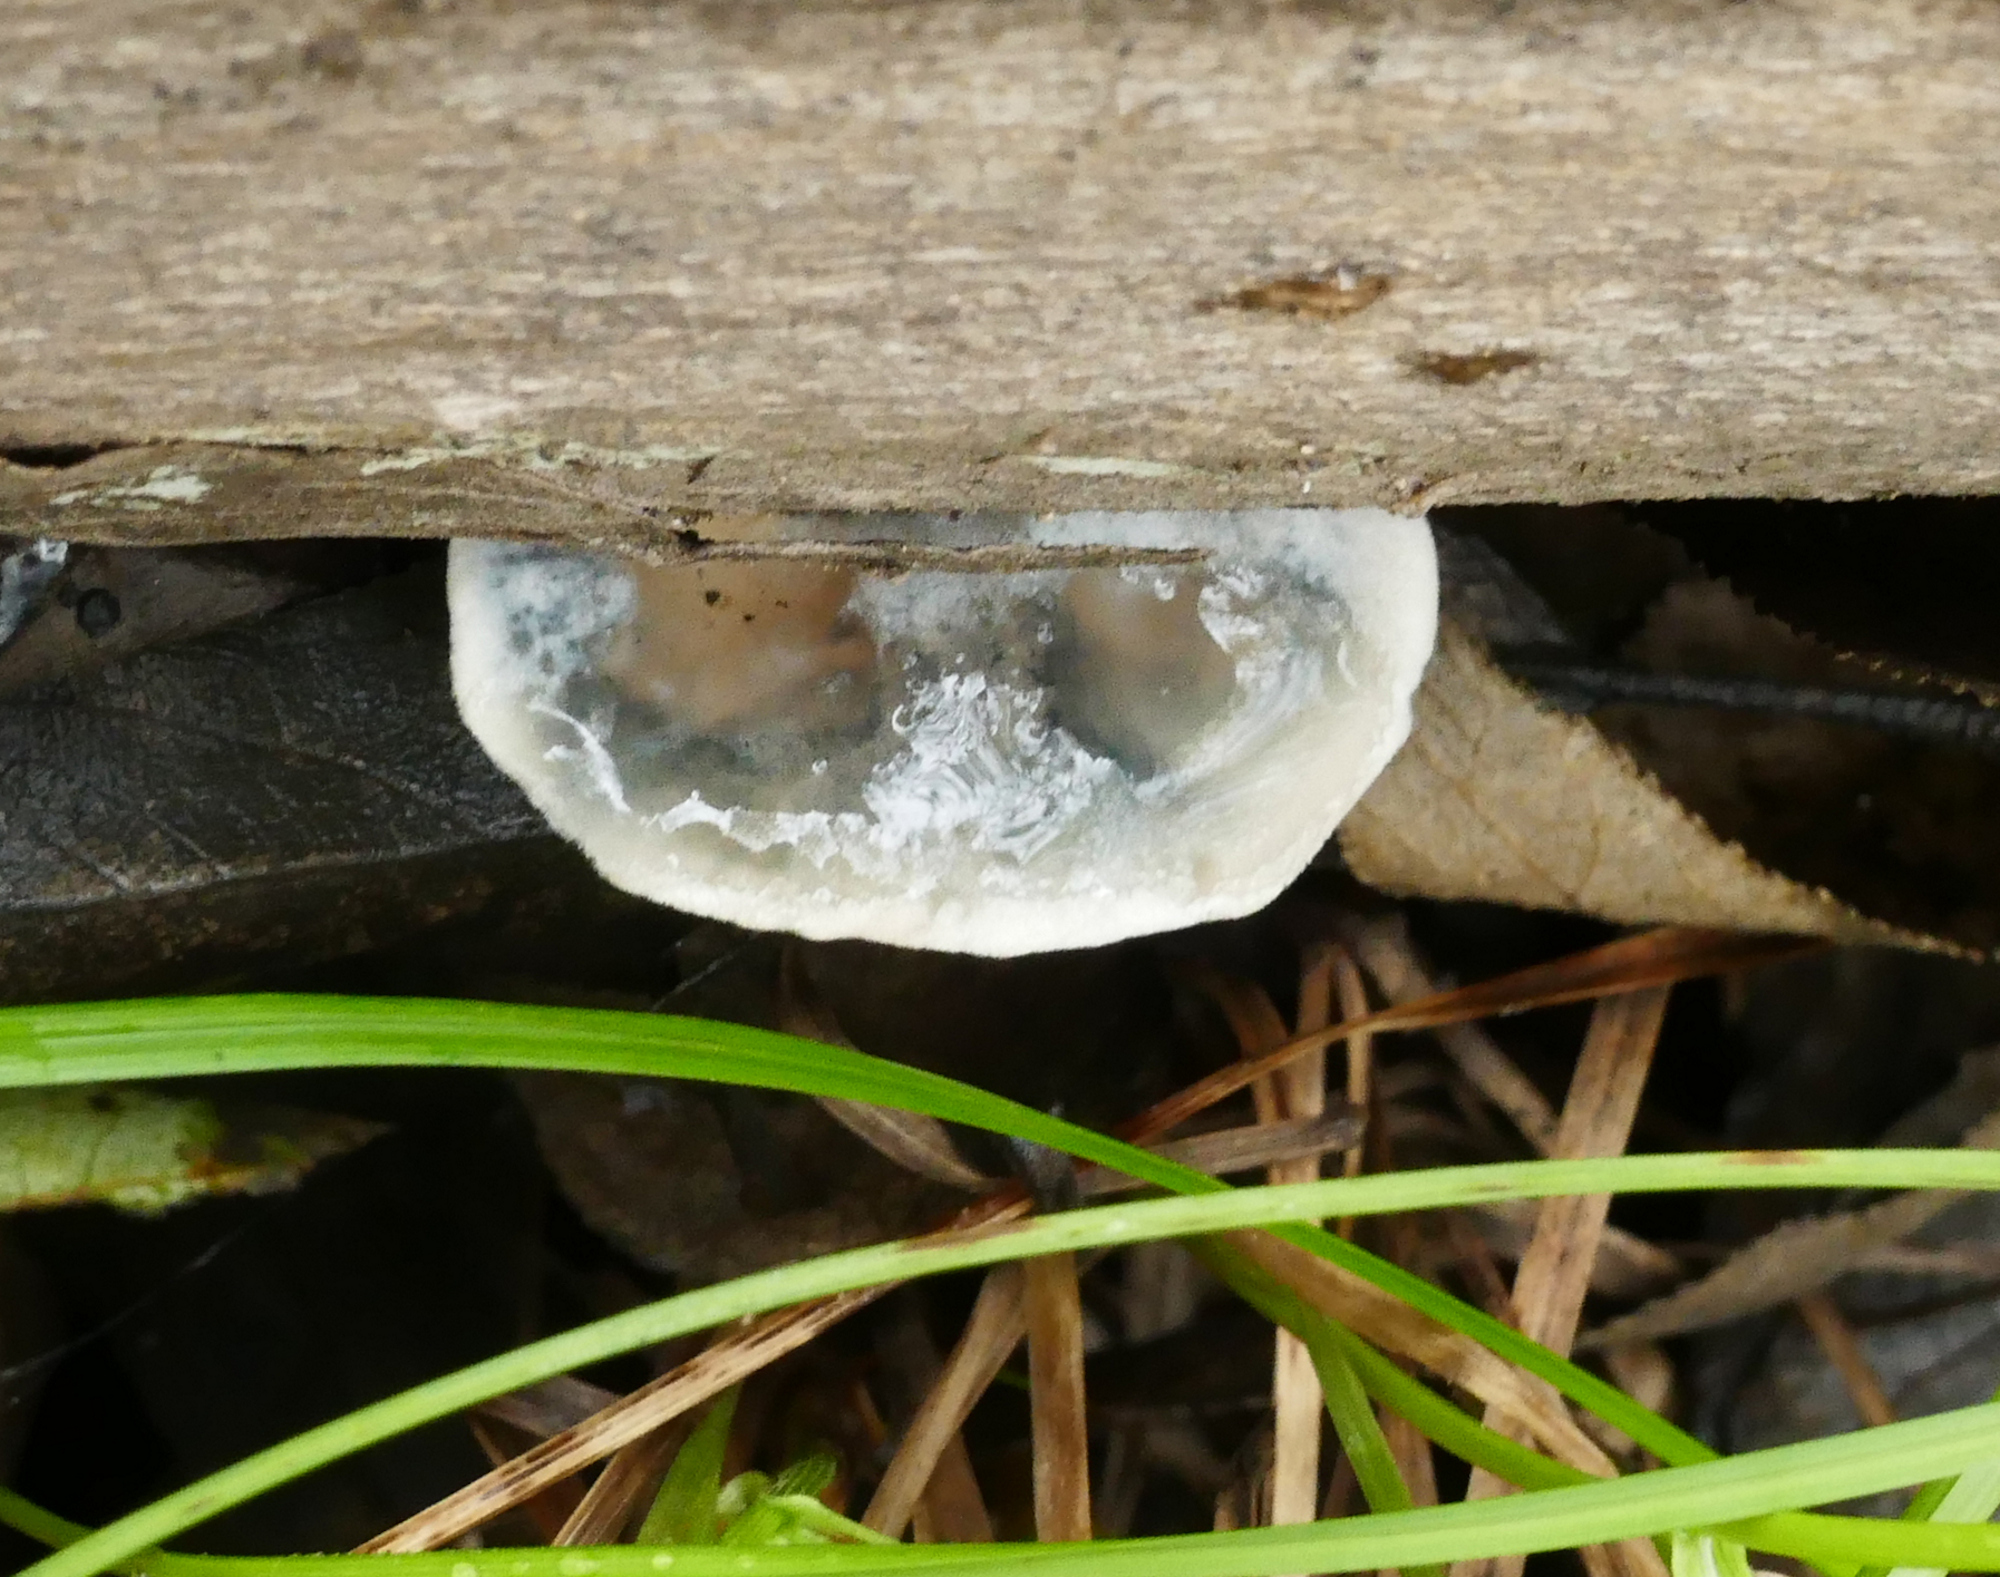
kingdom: Fungi
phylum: Basidiomycota
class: Agaricomycetes
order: Polyporales
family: Polyporaceae
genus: Cyanosporus
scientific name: Cyanosporus caesius
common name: Blue cheese polypore
